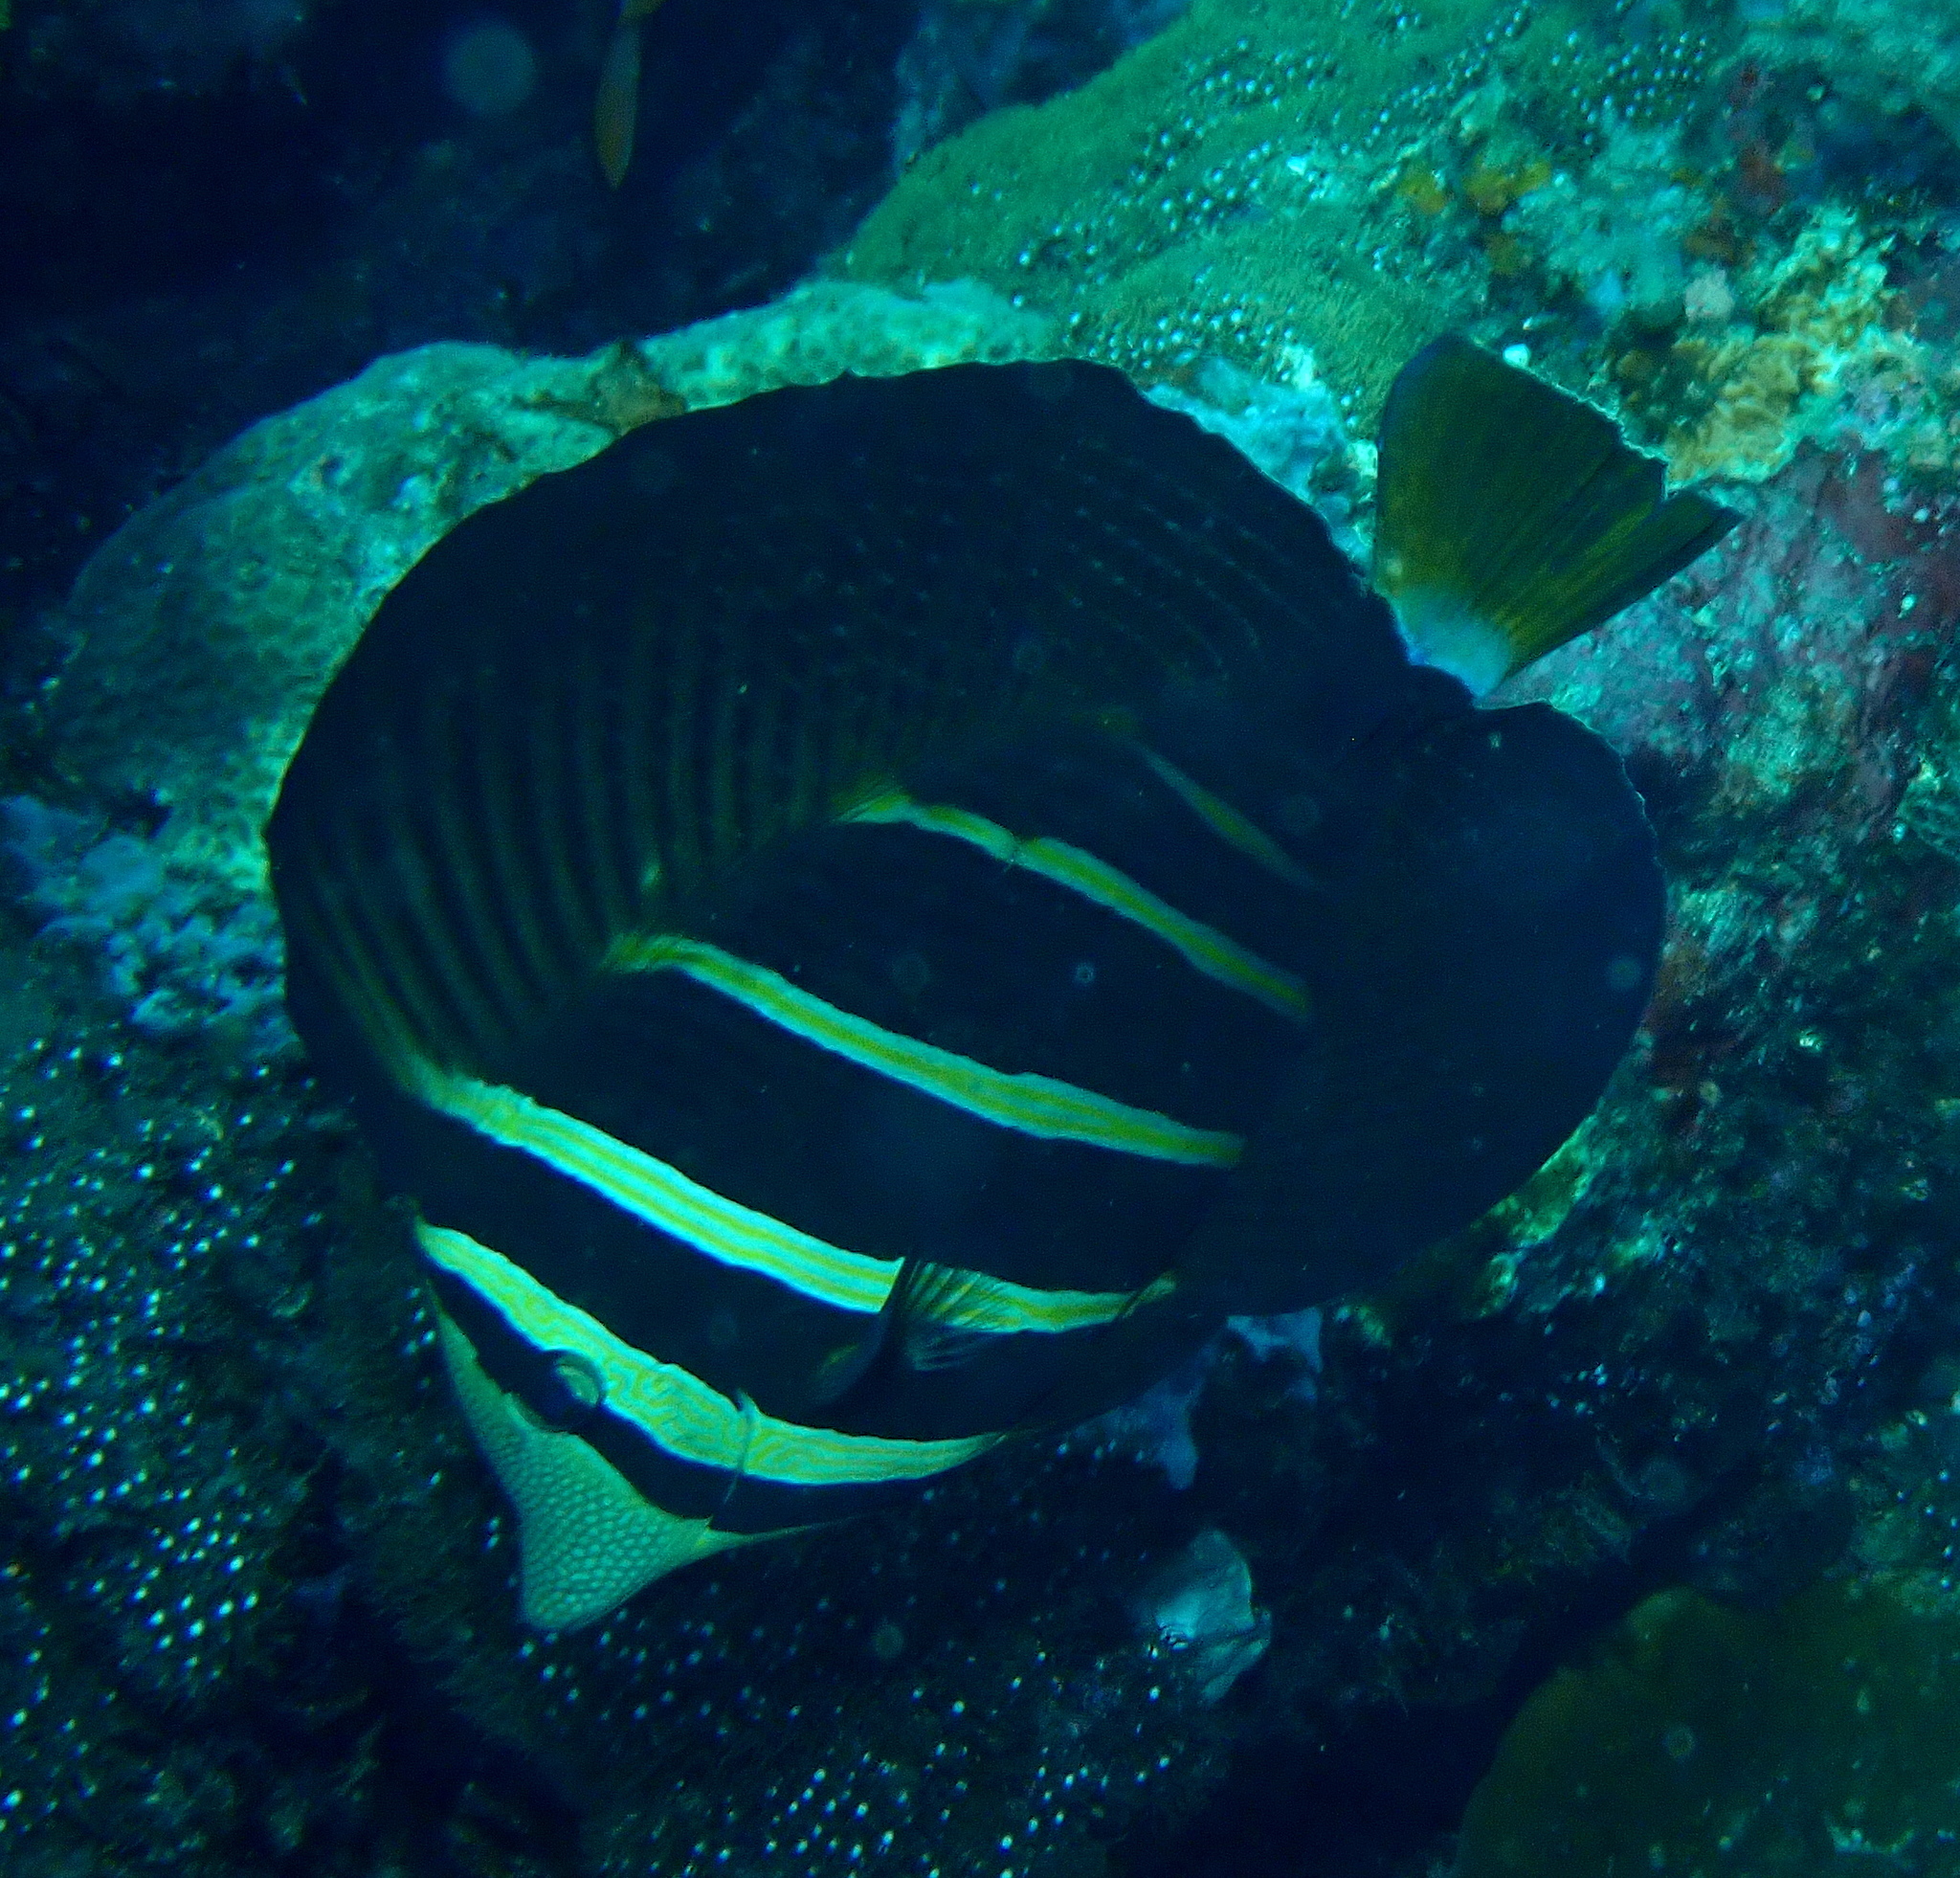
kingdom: Animalia
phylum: Chordata
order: Perciformes
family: Acanthuridae
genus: Zebrasoma
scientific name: Zebrasoma veliferum
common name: Sailfin surgeonfish
